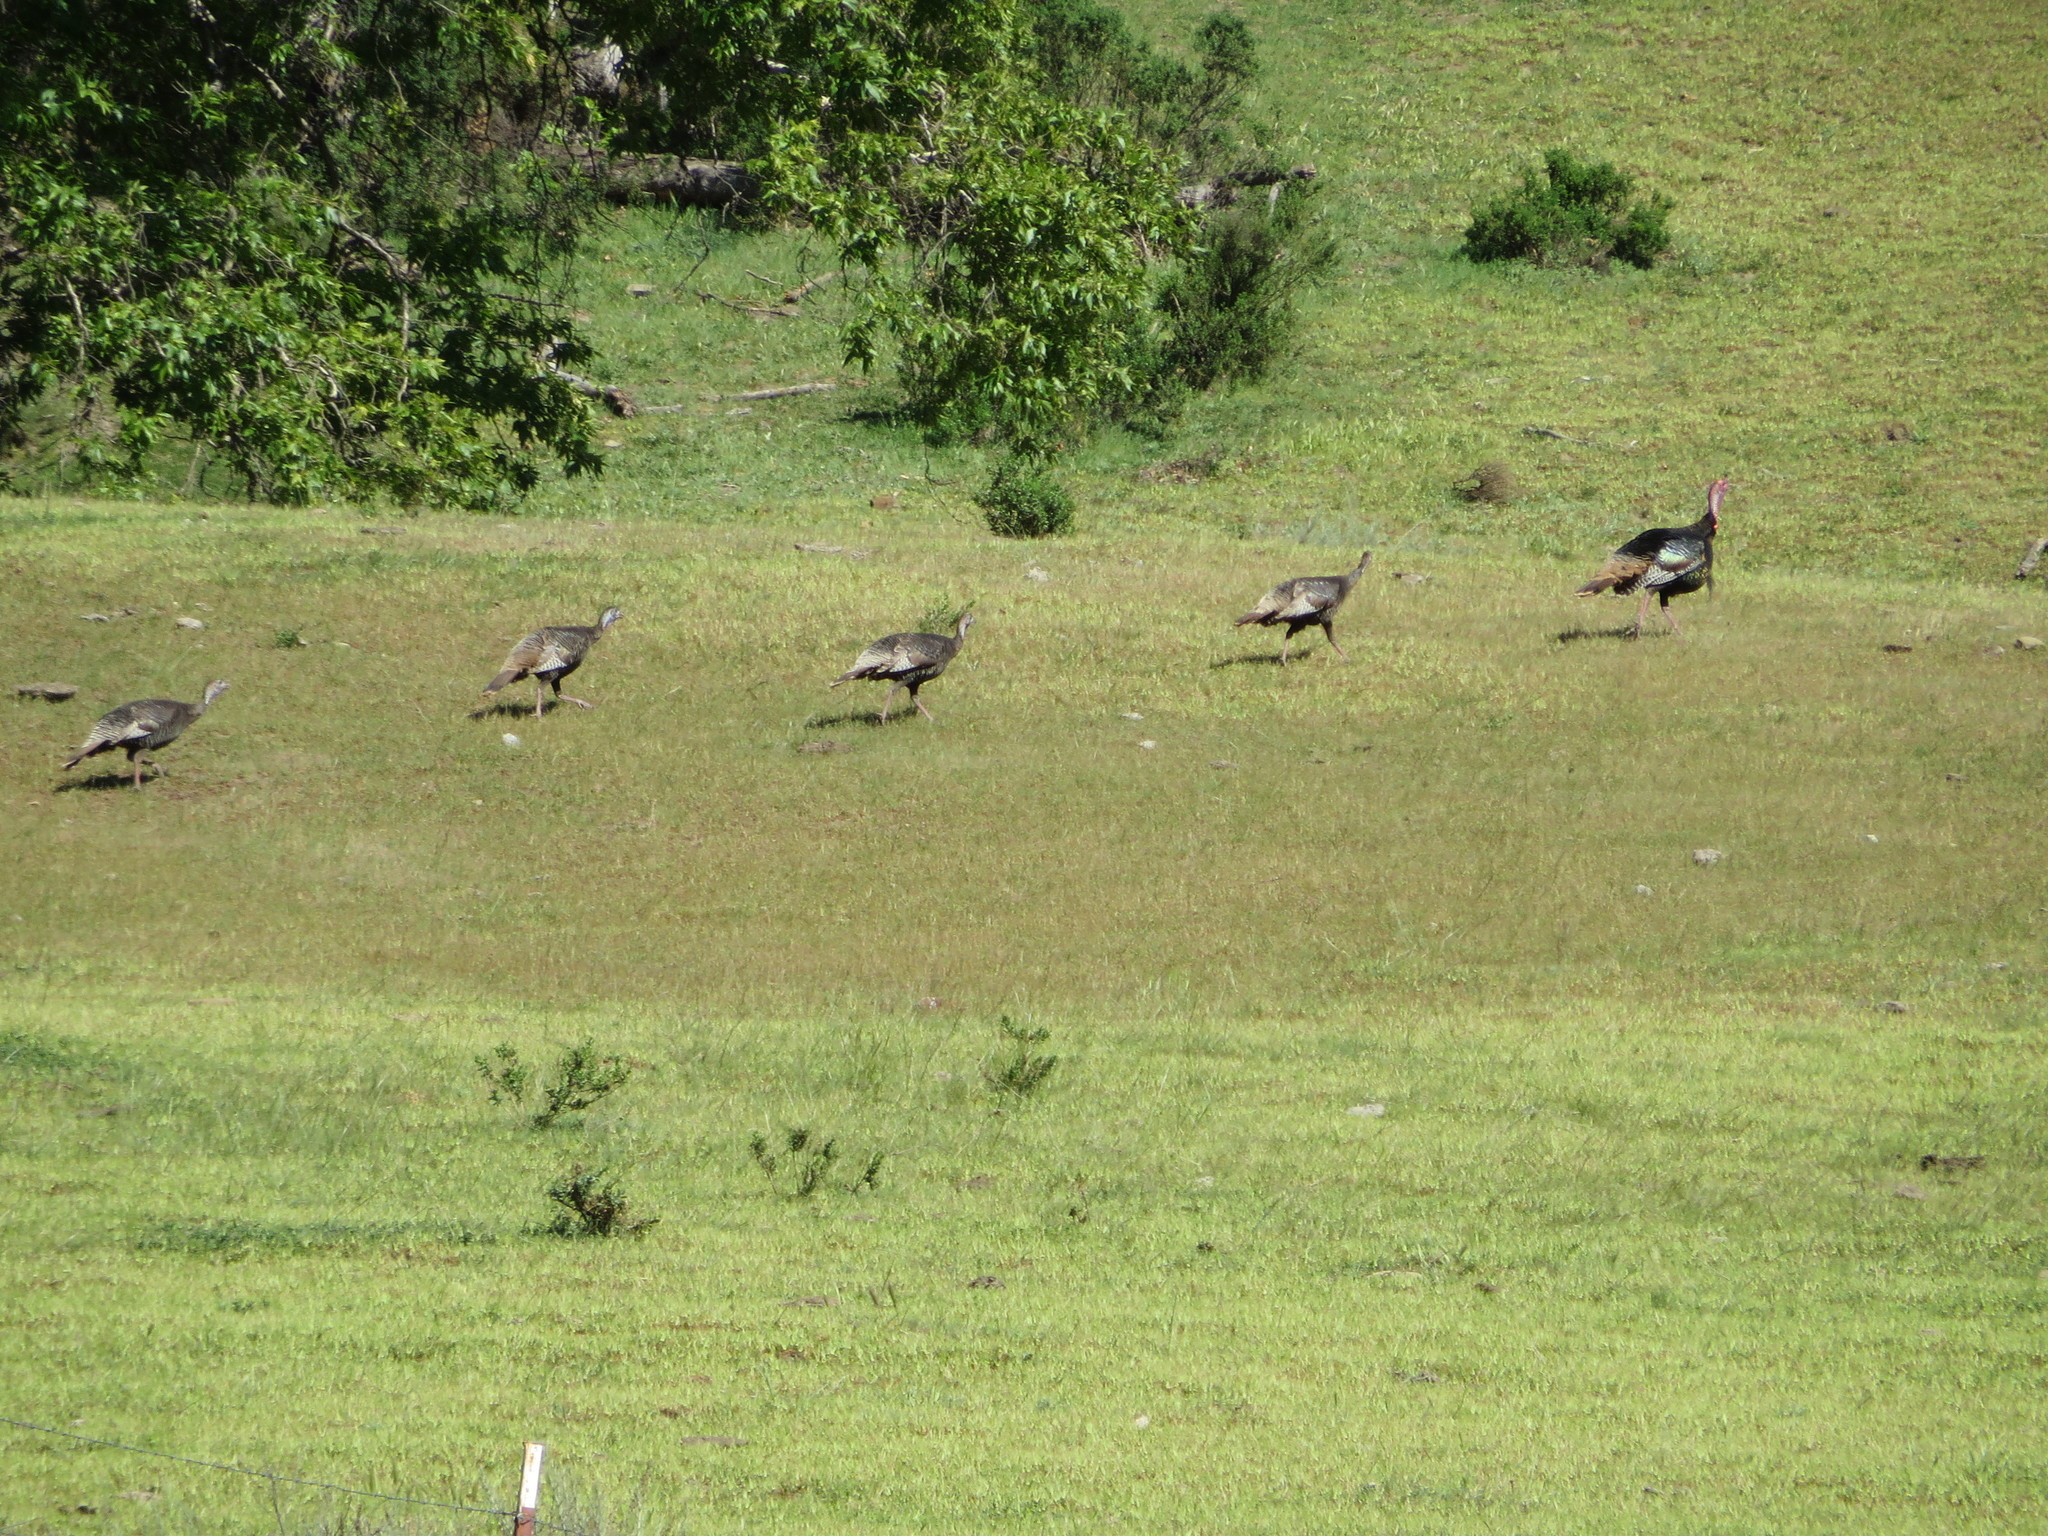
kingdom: Animalia
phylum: Chordata
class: Aves
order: Galliformes
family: Phasianidae
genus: Meleagris
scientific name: Meleagris gallopavo
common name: Wild turkey
